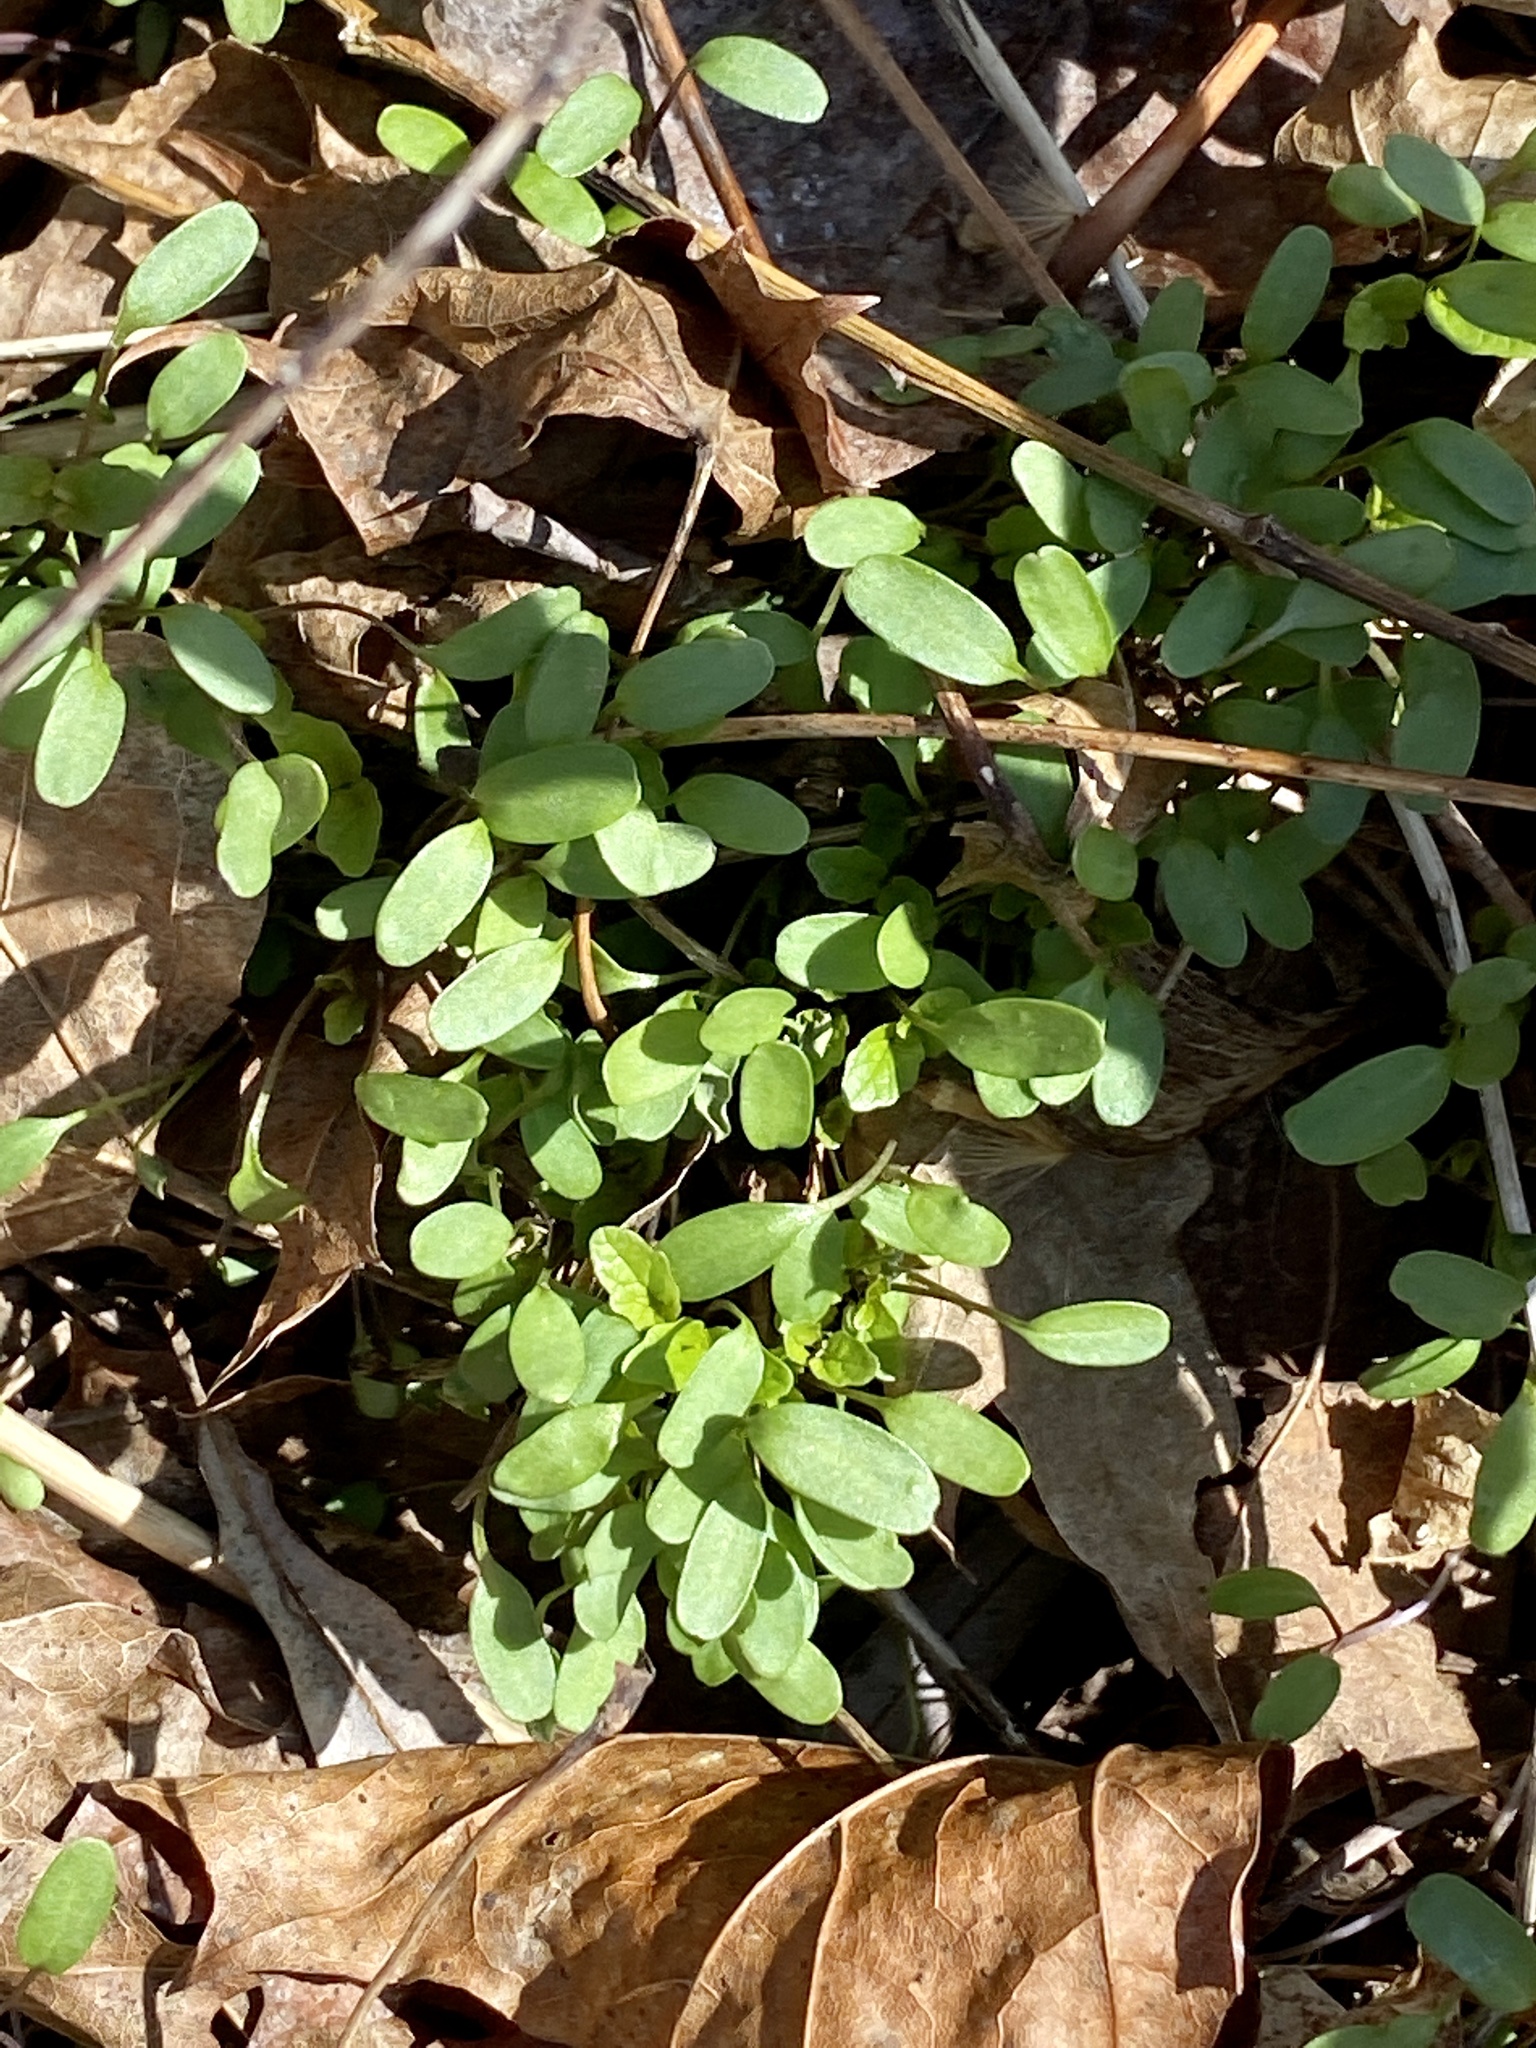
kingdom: Plantae
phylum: Tracheophyta
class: Magnoliopsida
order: Brassicales
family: Brassicaceae
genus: Alliaria
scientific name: Alliaria petiolata
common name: Garlic mustard
